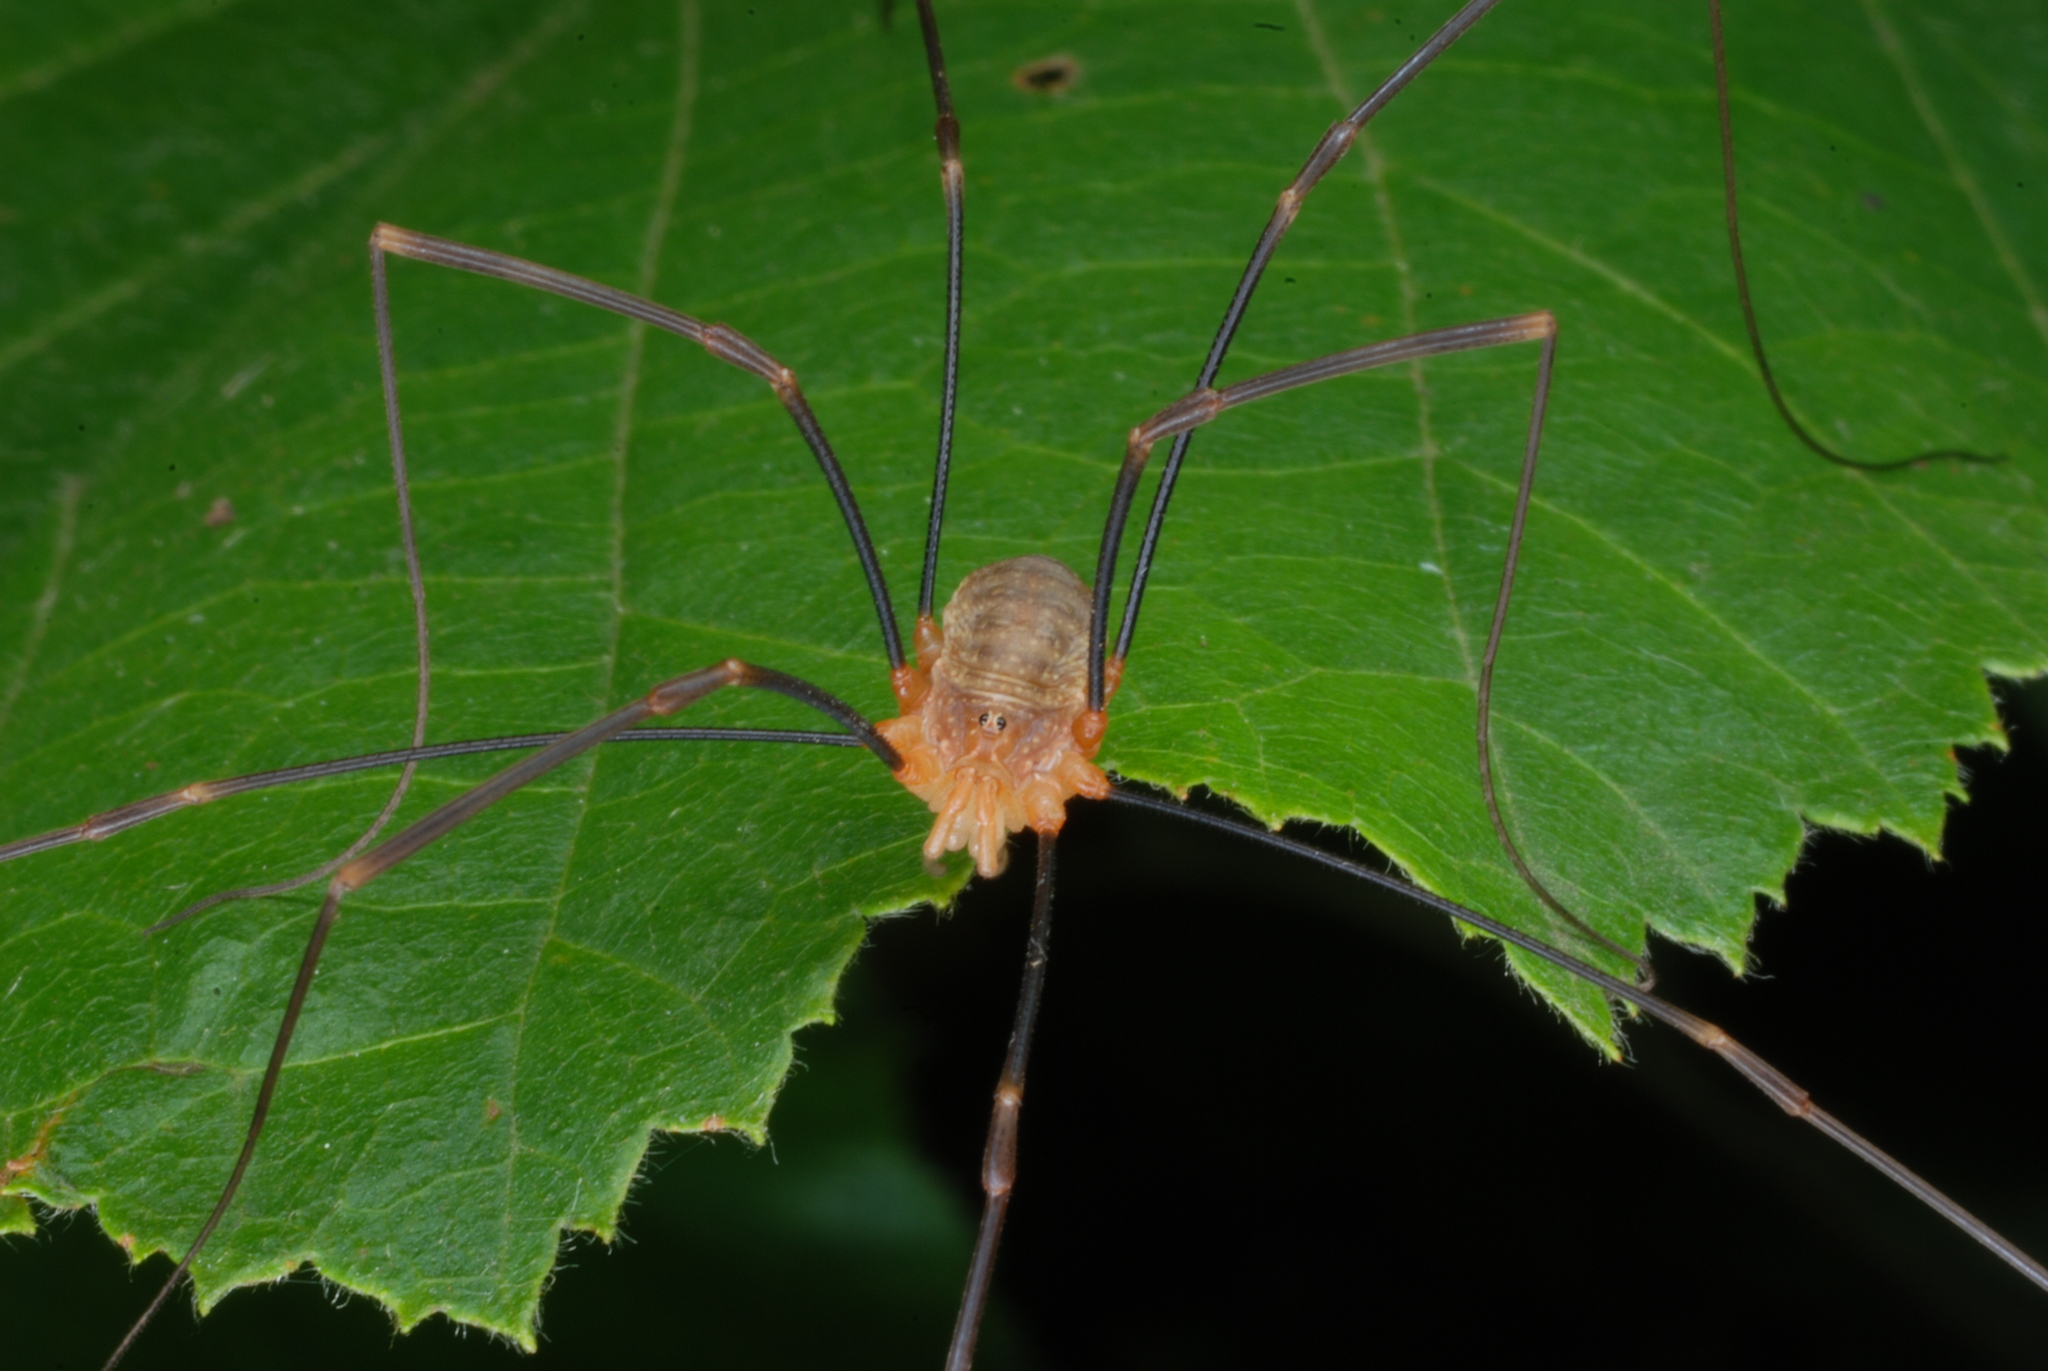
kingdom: Animalia
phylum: Arthropoda
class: Arachnida
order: Opiliones
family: Phalangiidae
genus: Opilio
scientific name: Opilio canestrinii
